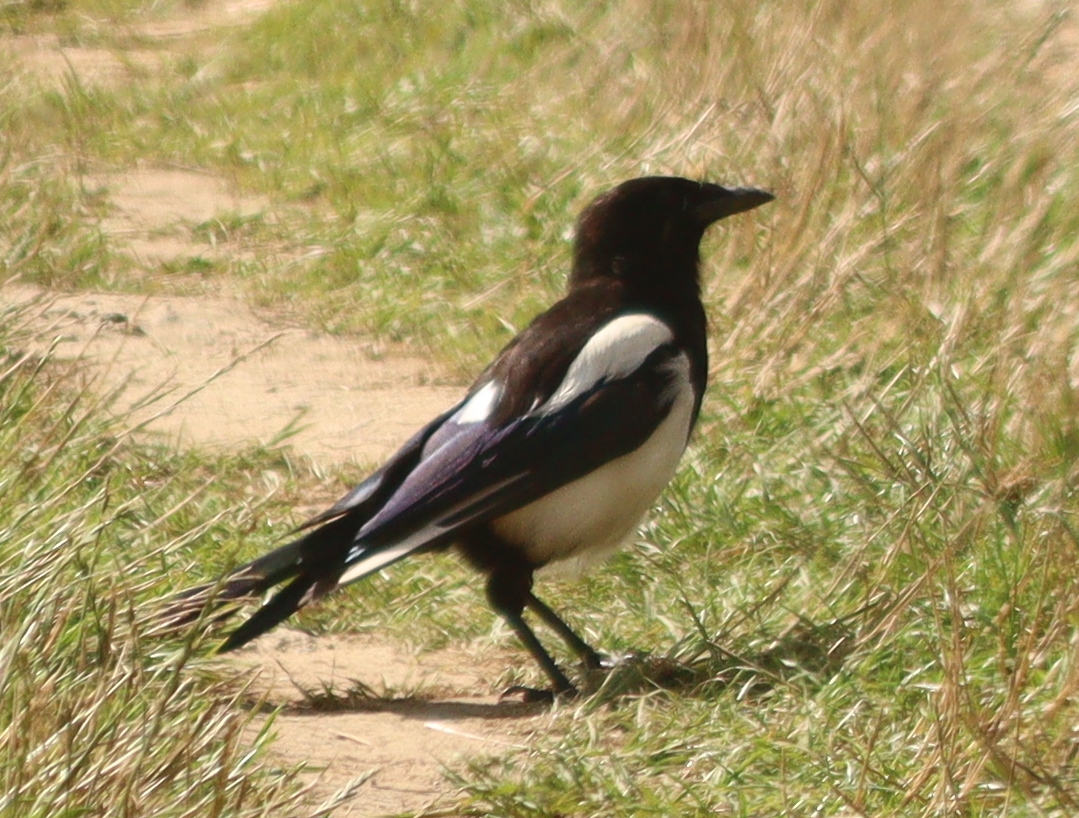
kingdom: Animalia
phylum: Chordata
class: Aves
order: Passeriformes
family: Corvidae
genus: Pica
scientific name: Pica pica
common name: Eurasian magpie
